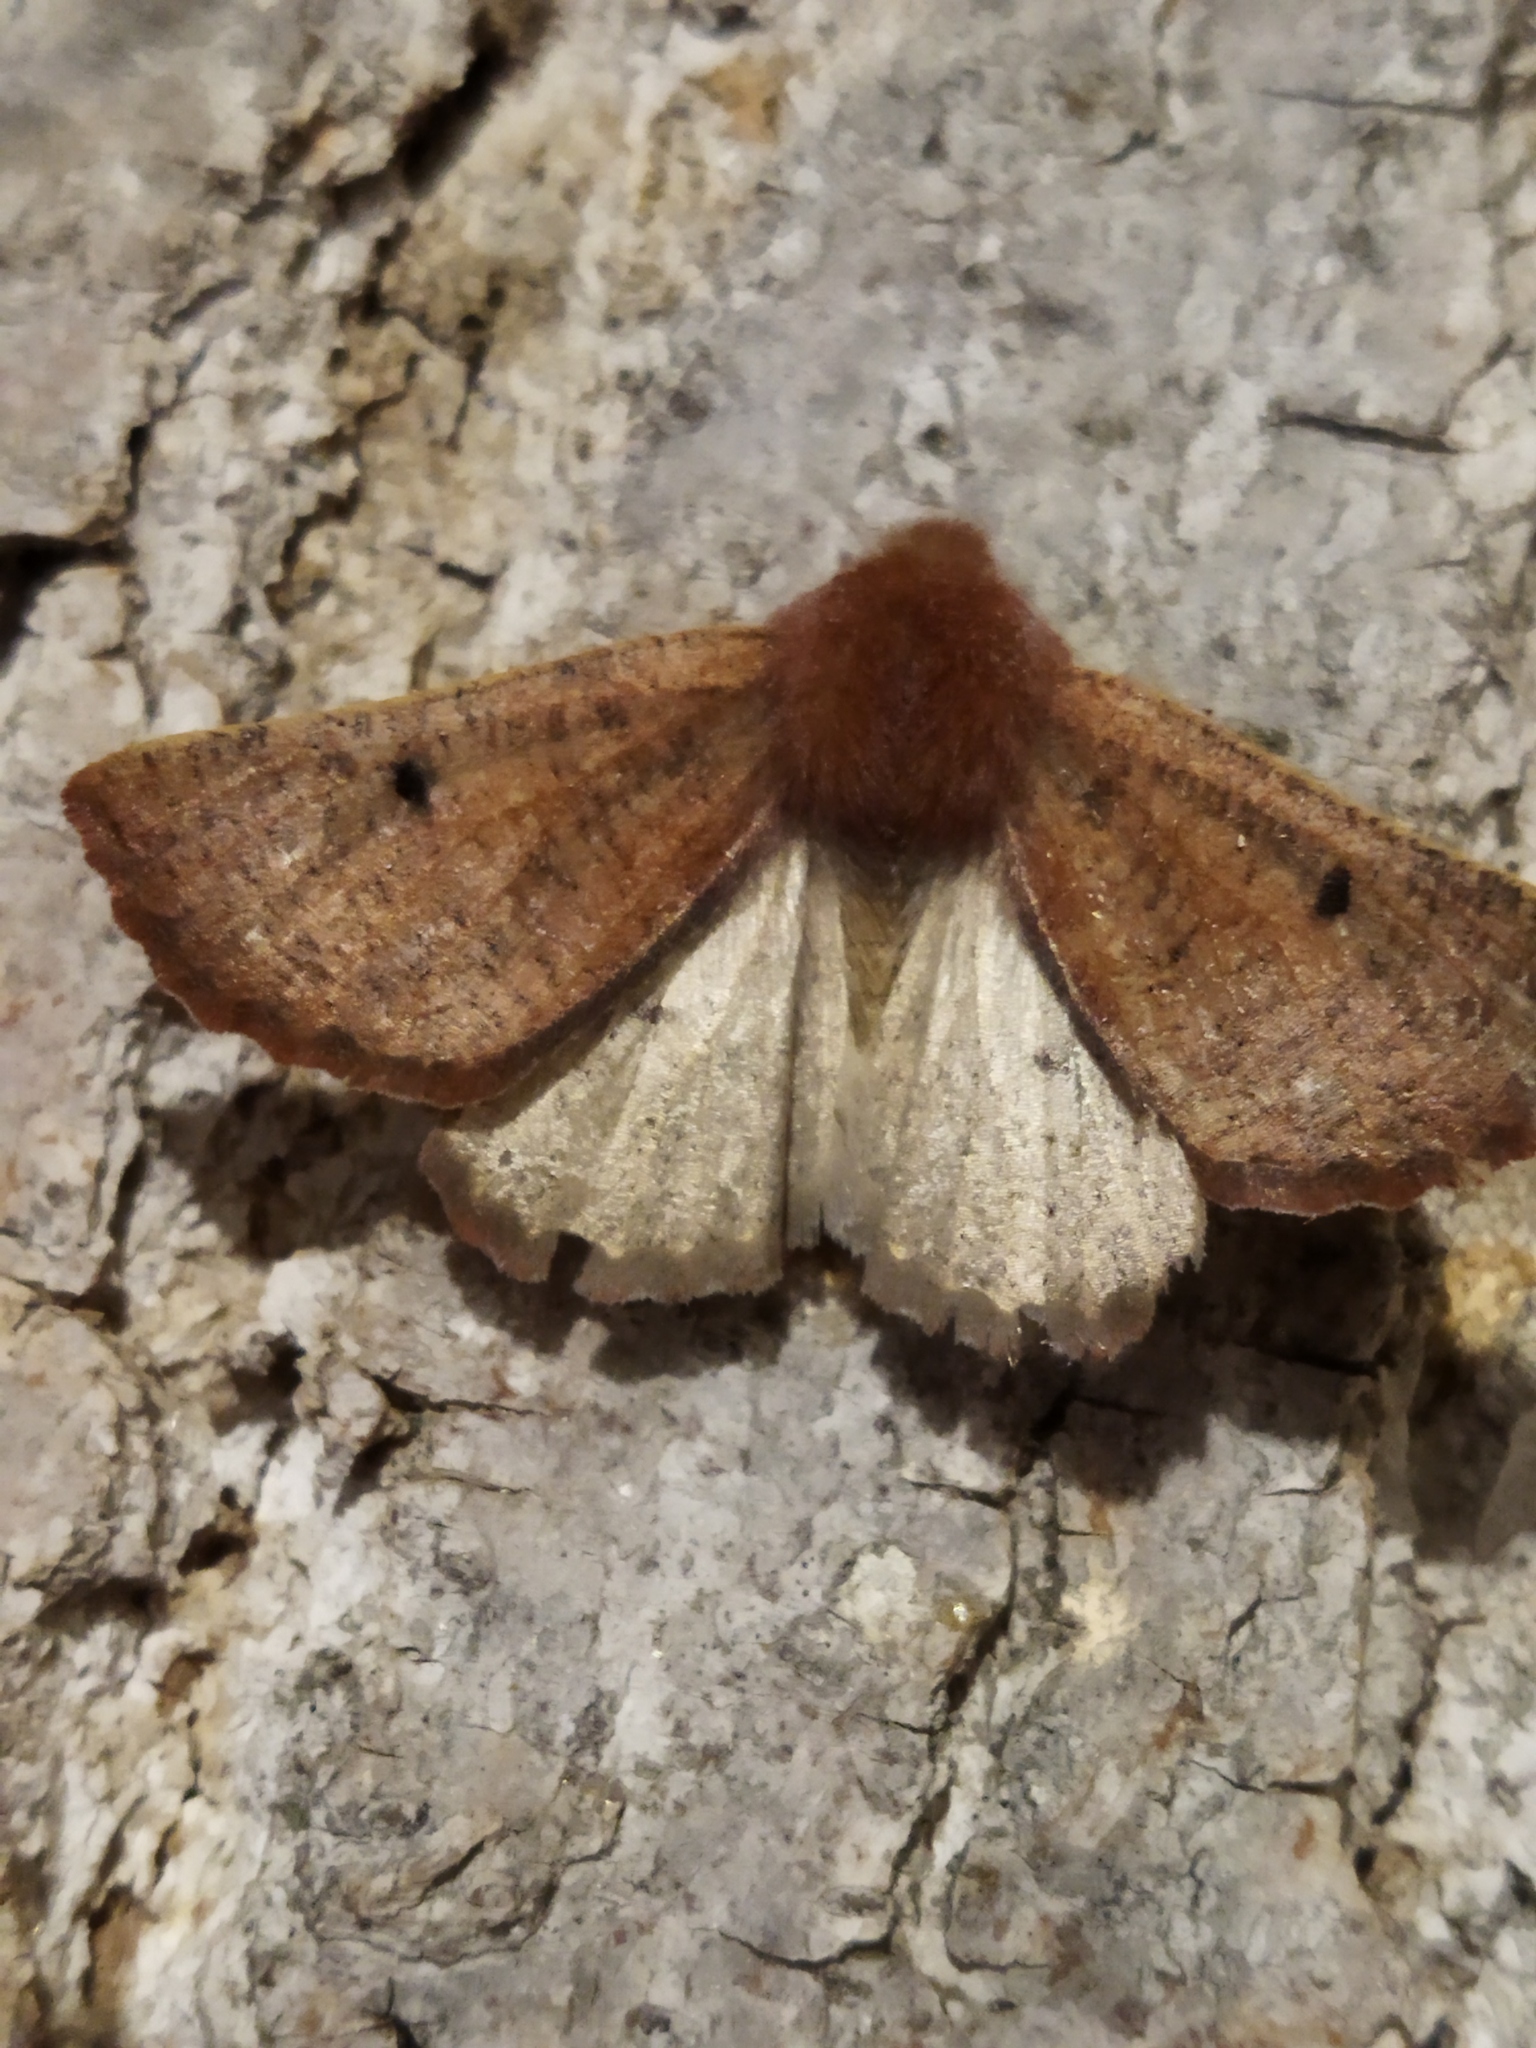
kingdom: Animalia
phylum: Arthropoda
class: Insecta
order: Lepidoptera
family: Geometridae
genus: Dasycorsa
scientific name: Dasycorsa modesta
